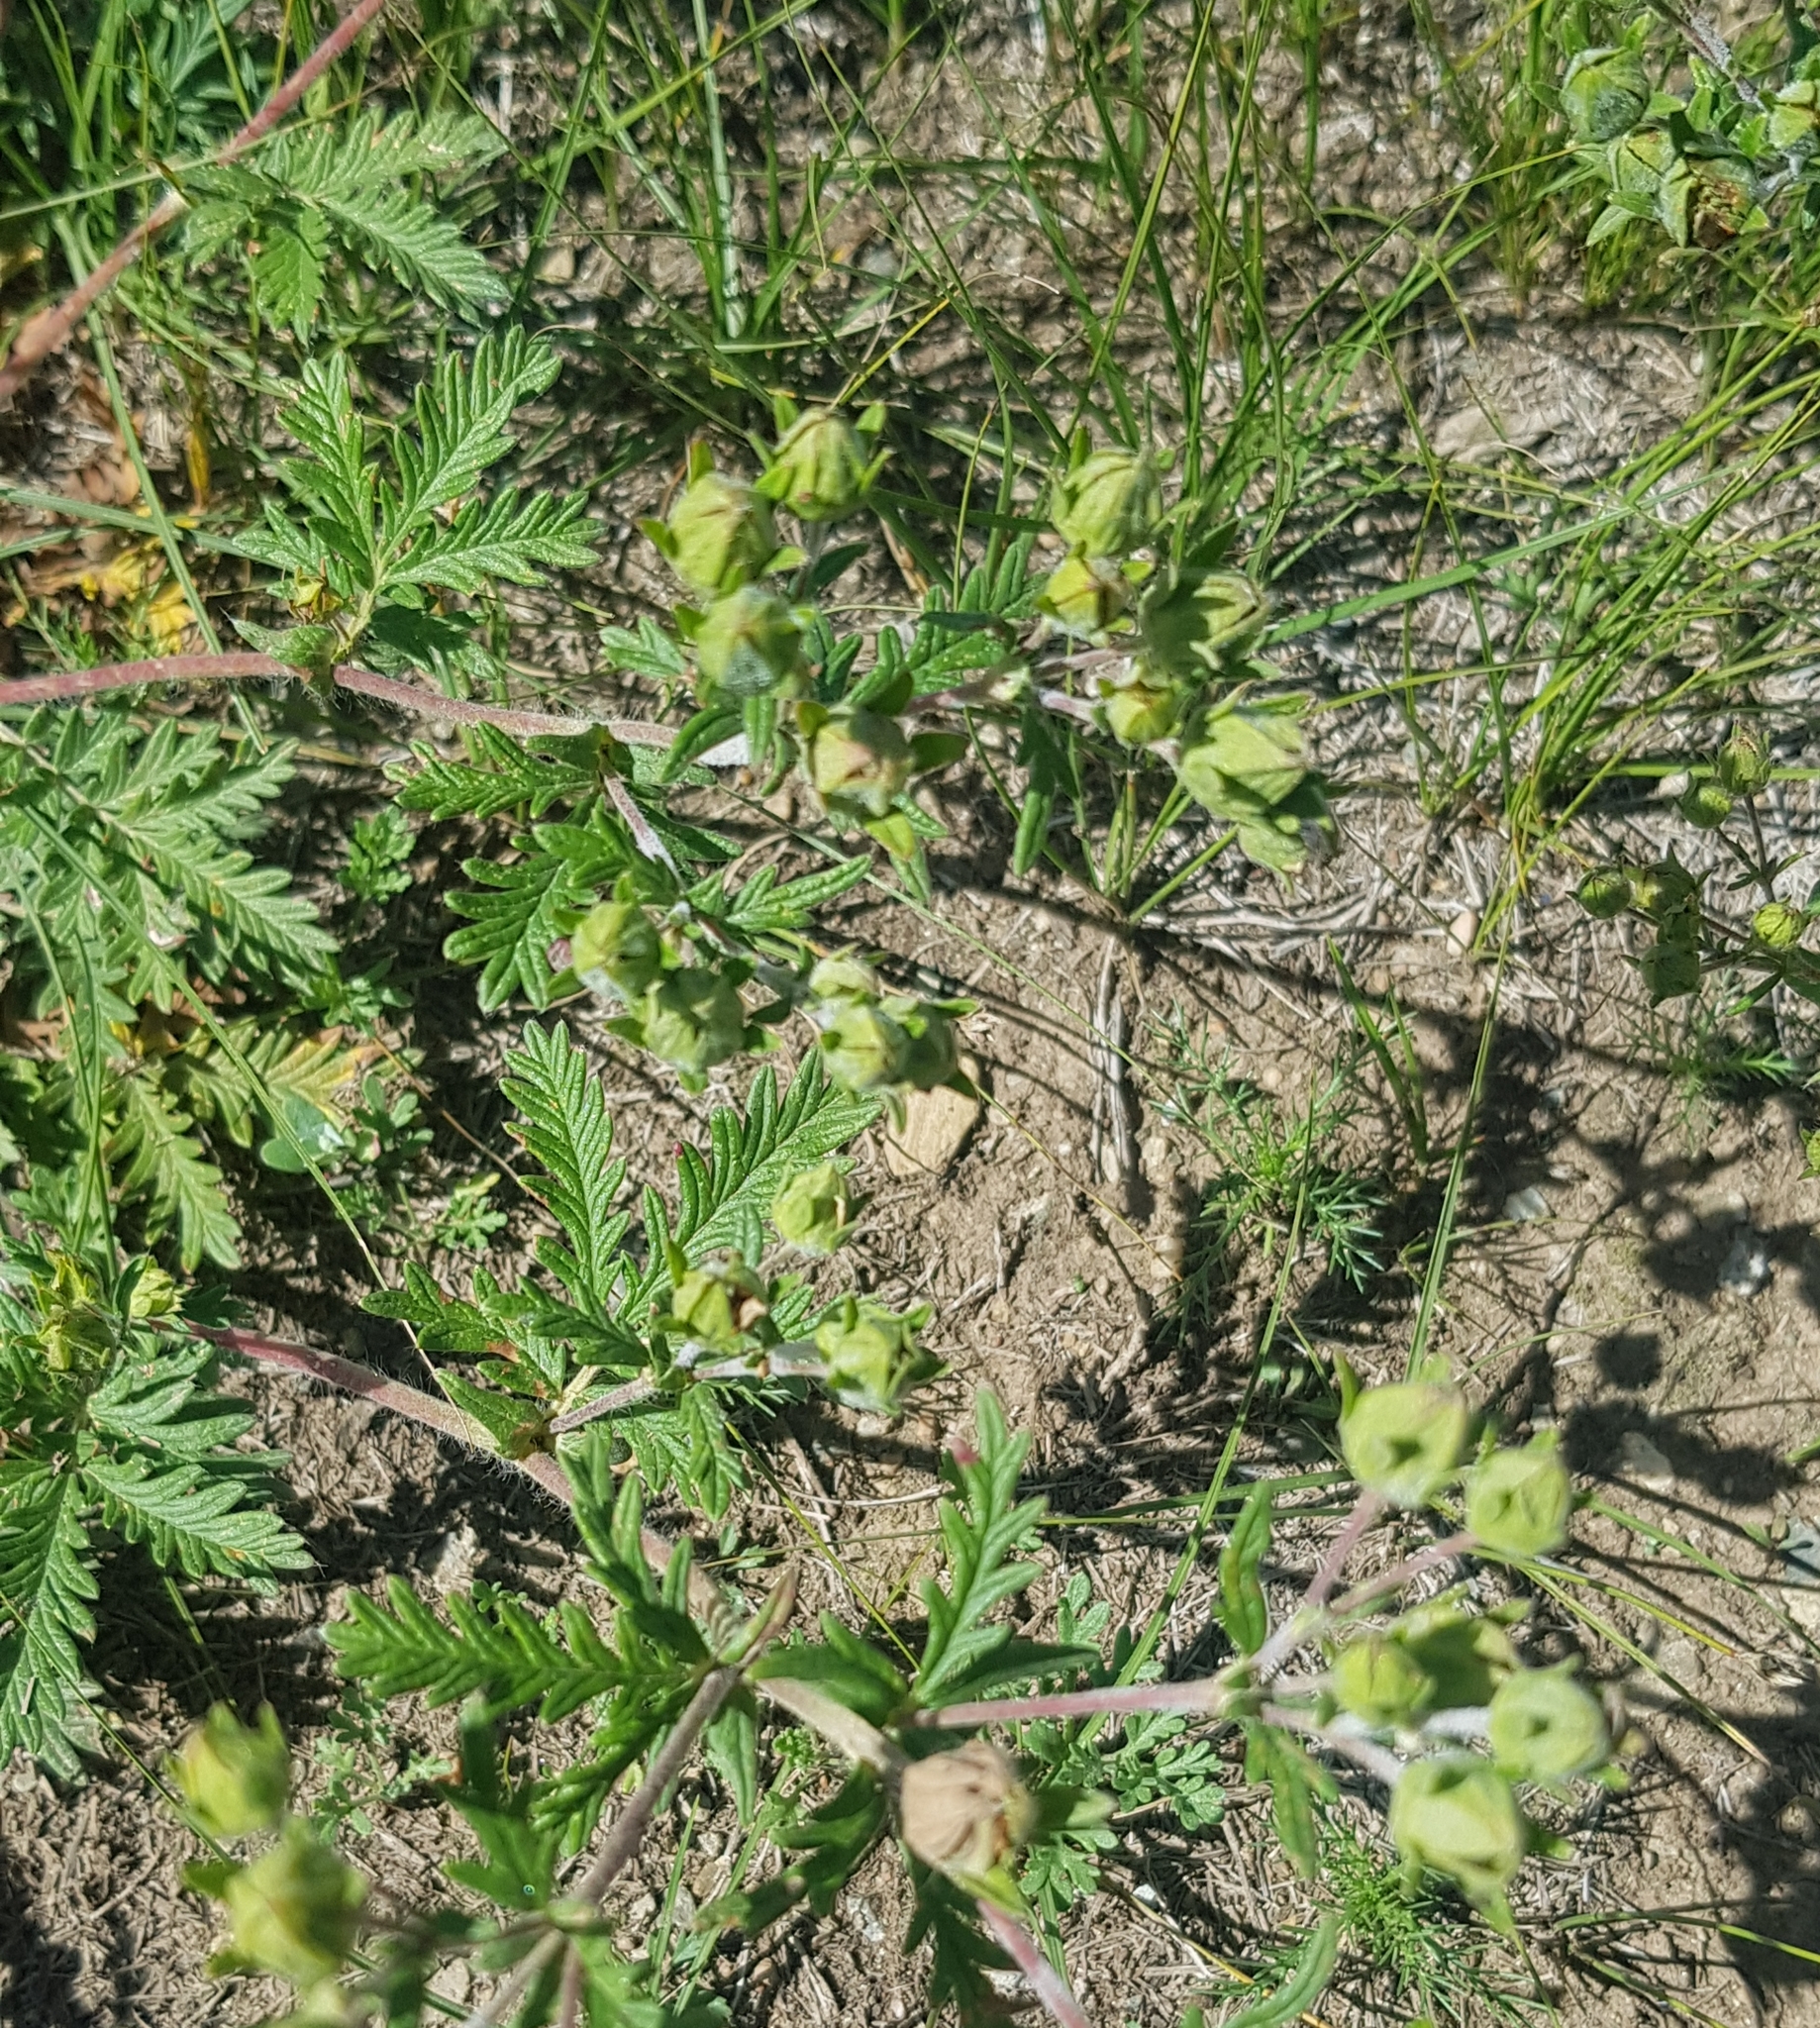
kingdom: Plantae
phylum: Tracheophyta
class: Magnoliopsida
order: Rosales
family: Rosaceae
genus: Potentilla
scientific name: Potentilla tergemina
